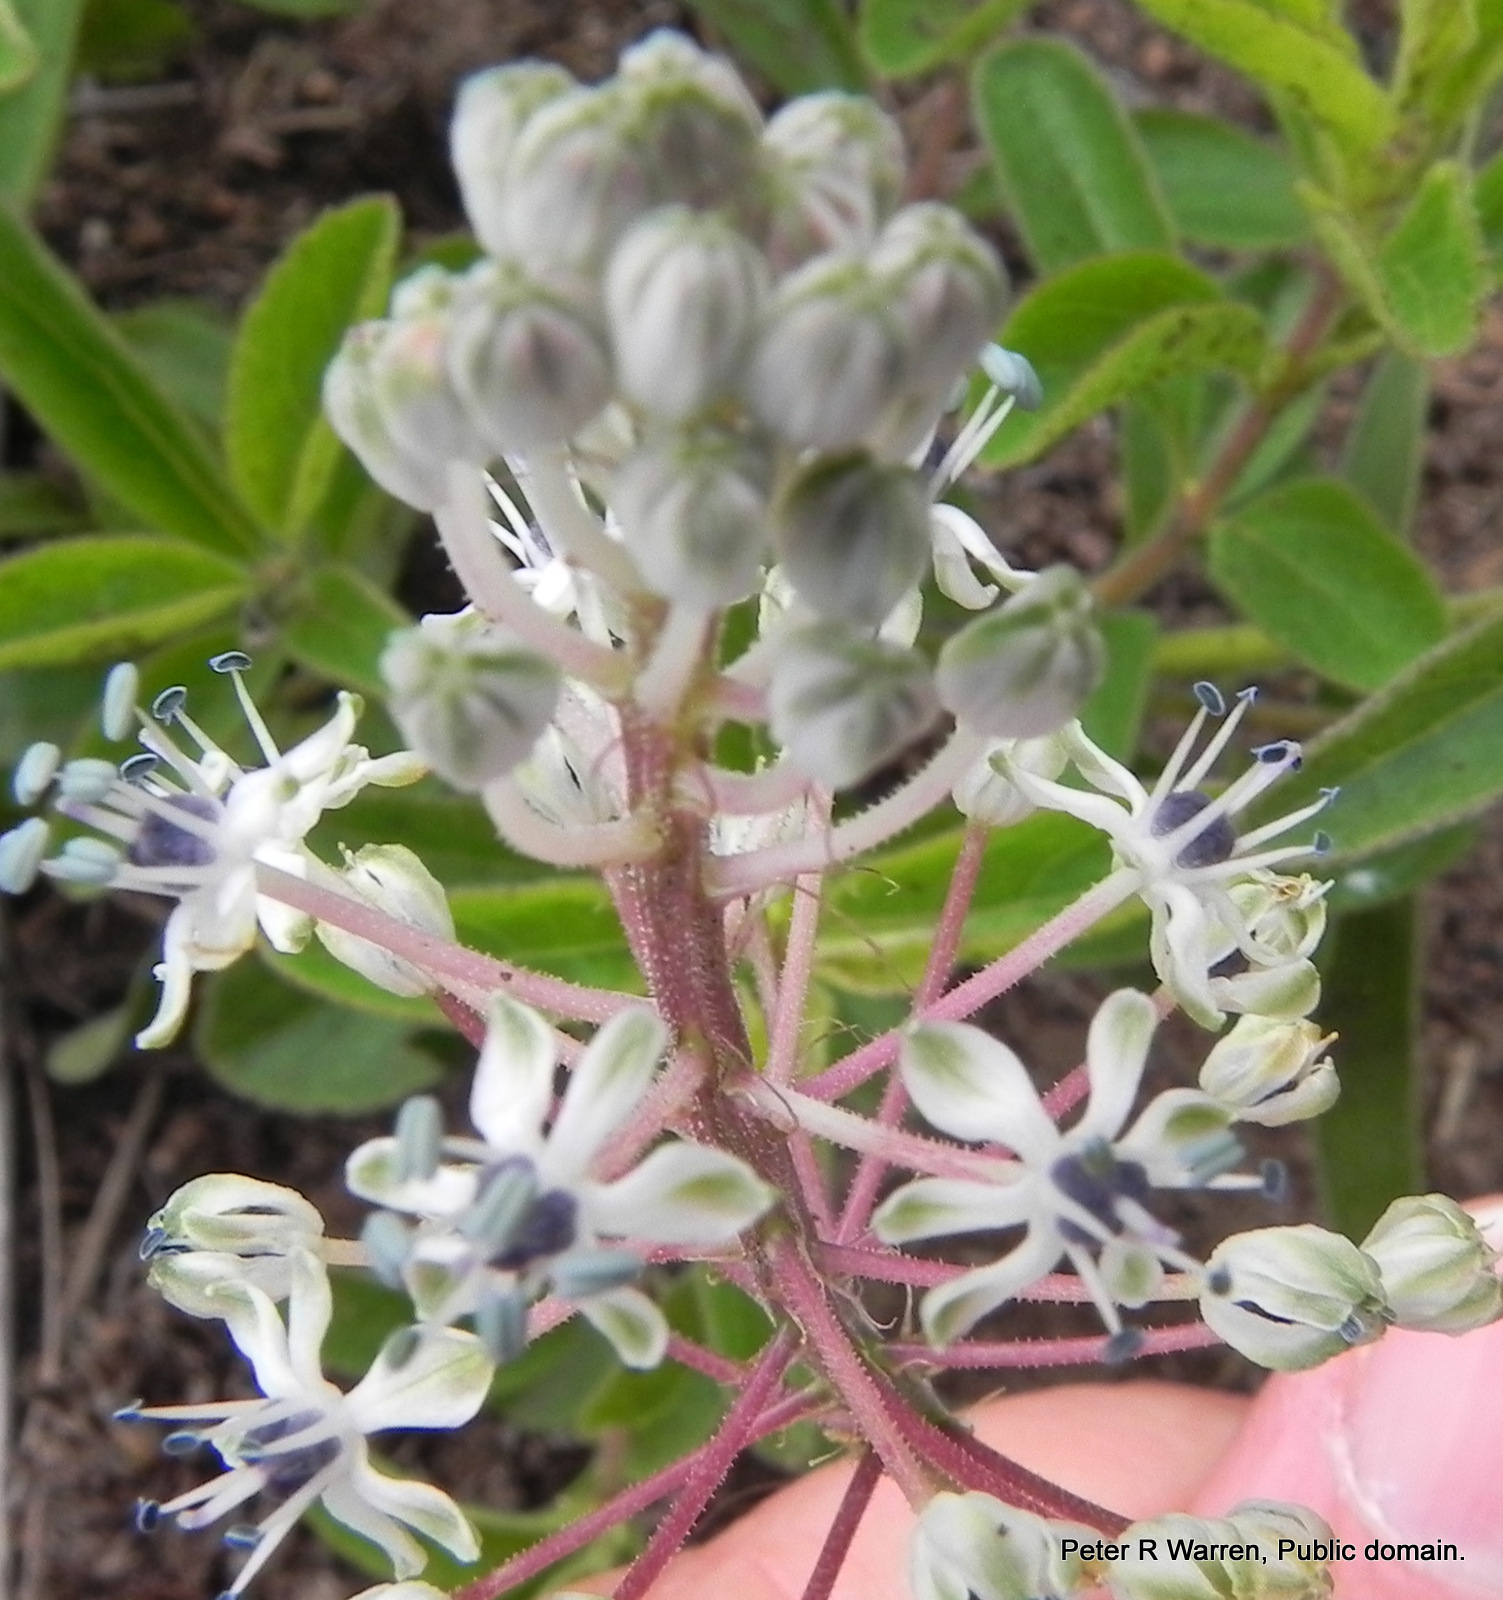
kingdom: Plantae
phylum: Tracheophyta
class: Liliopsida
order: Asparagales
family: Asparagaceae
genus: Schizocarphus
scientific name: Schizocarphus nervosus
